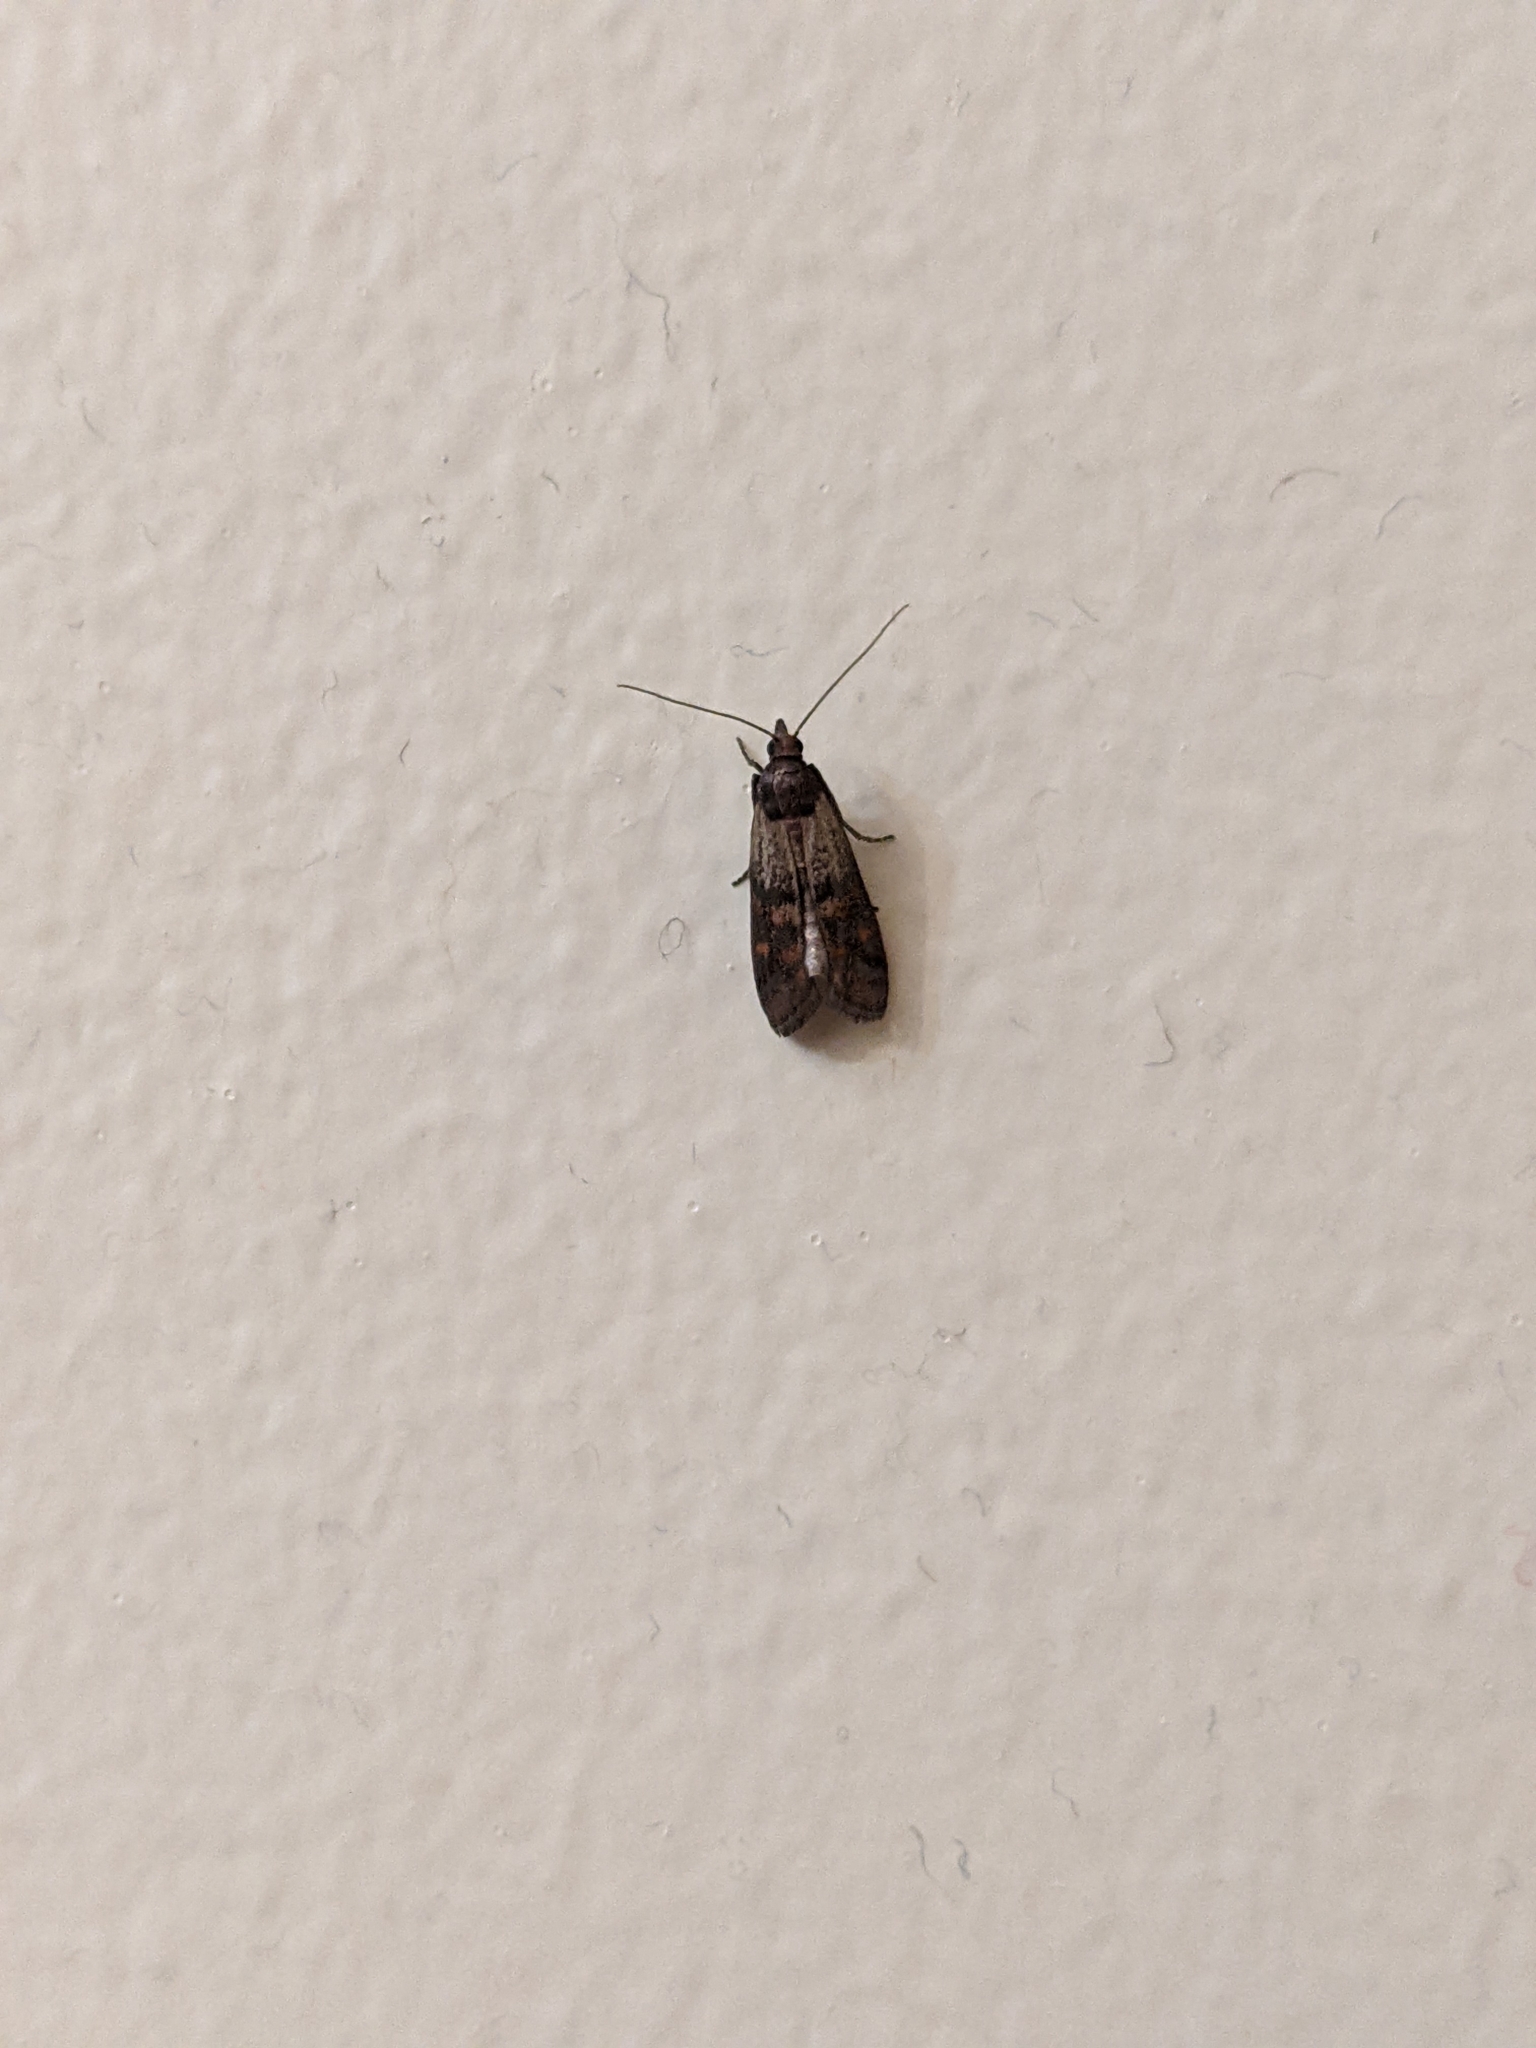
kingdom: Animalia
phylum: Arthropoda
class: Insecta
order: Lepidoptera
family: Pyralidae
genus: Plodia
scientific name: Plodia interpunctella
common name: Indian meal moth
